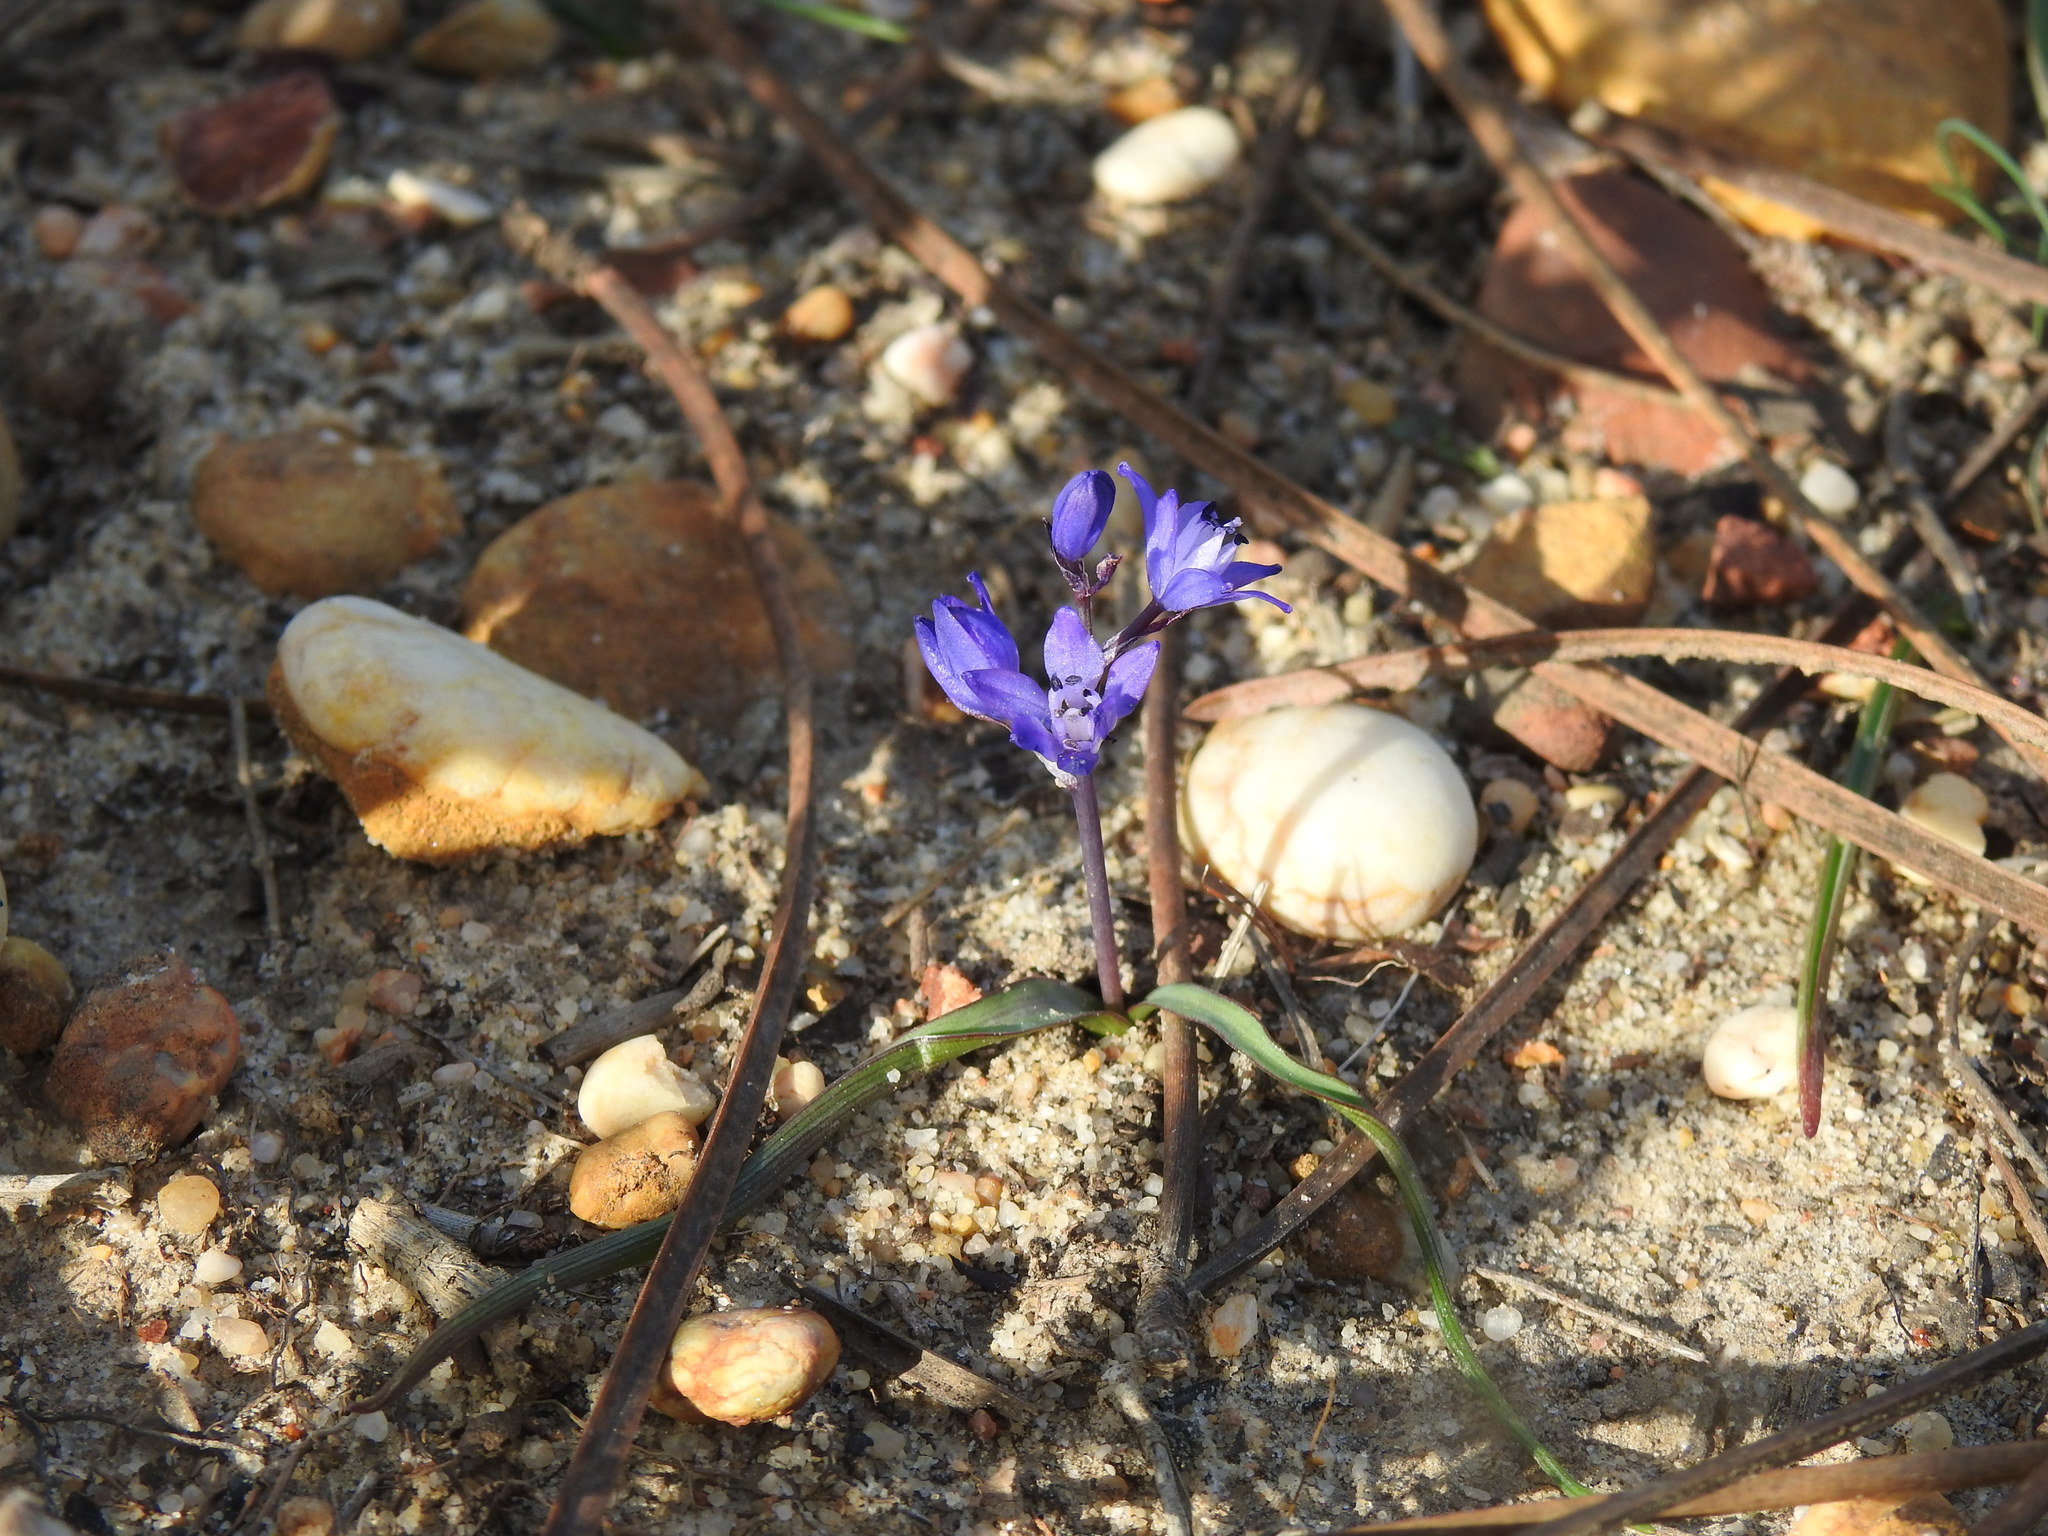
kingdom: Plantae
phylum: Tracheophyta
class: Liliopsida
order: Asparagales
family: Asparagaceae
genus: Scilla
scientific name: Scilla verna
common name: Spring squill
